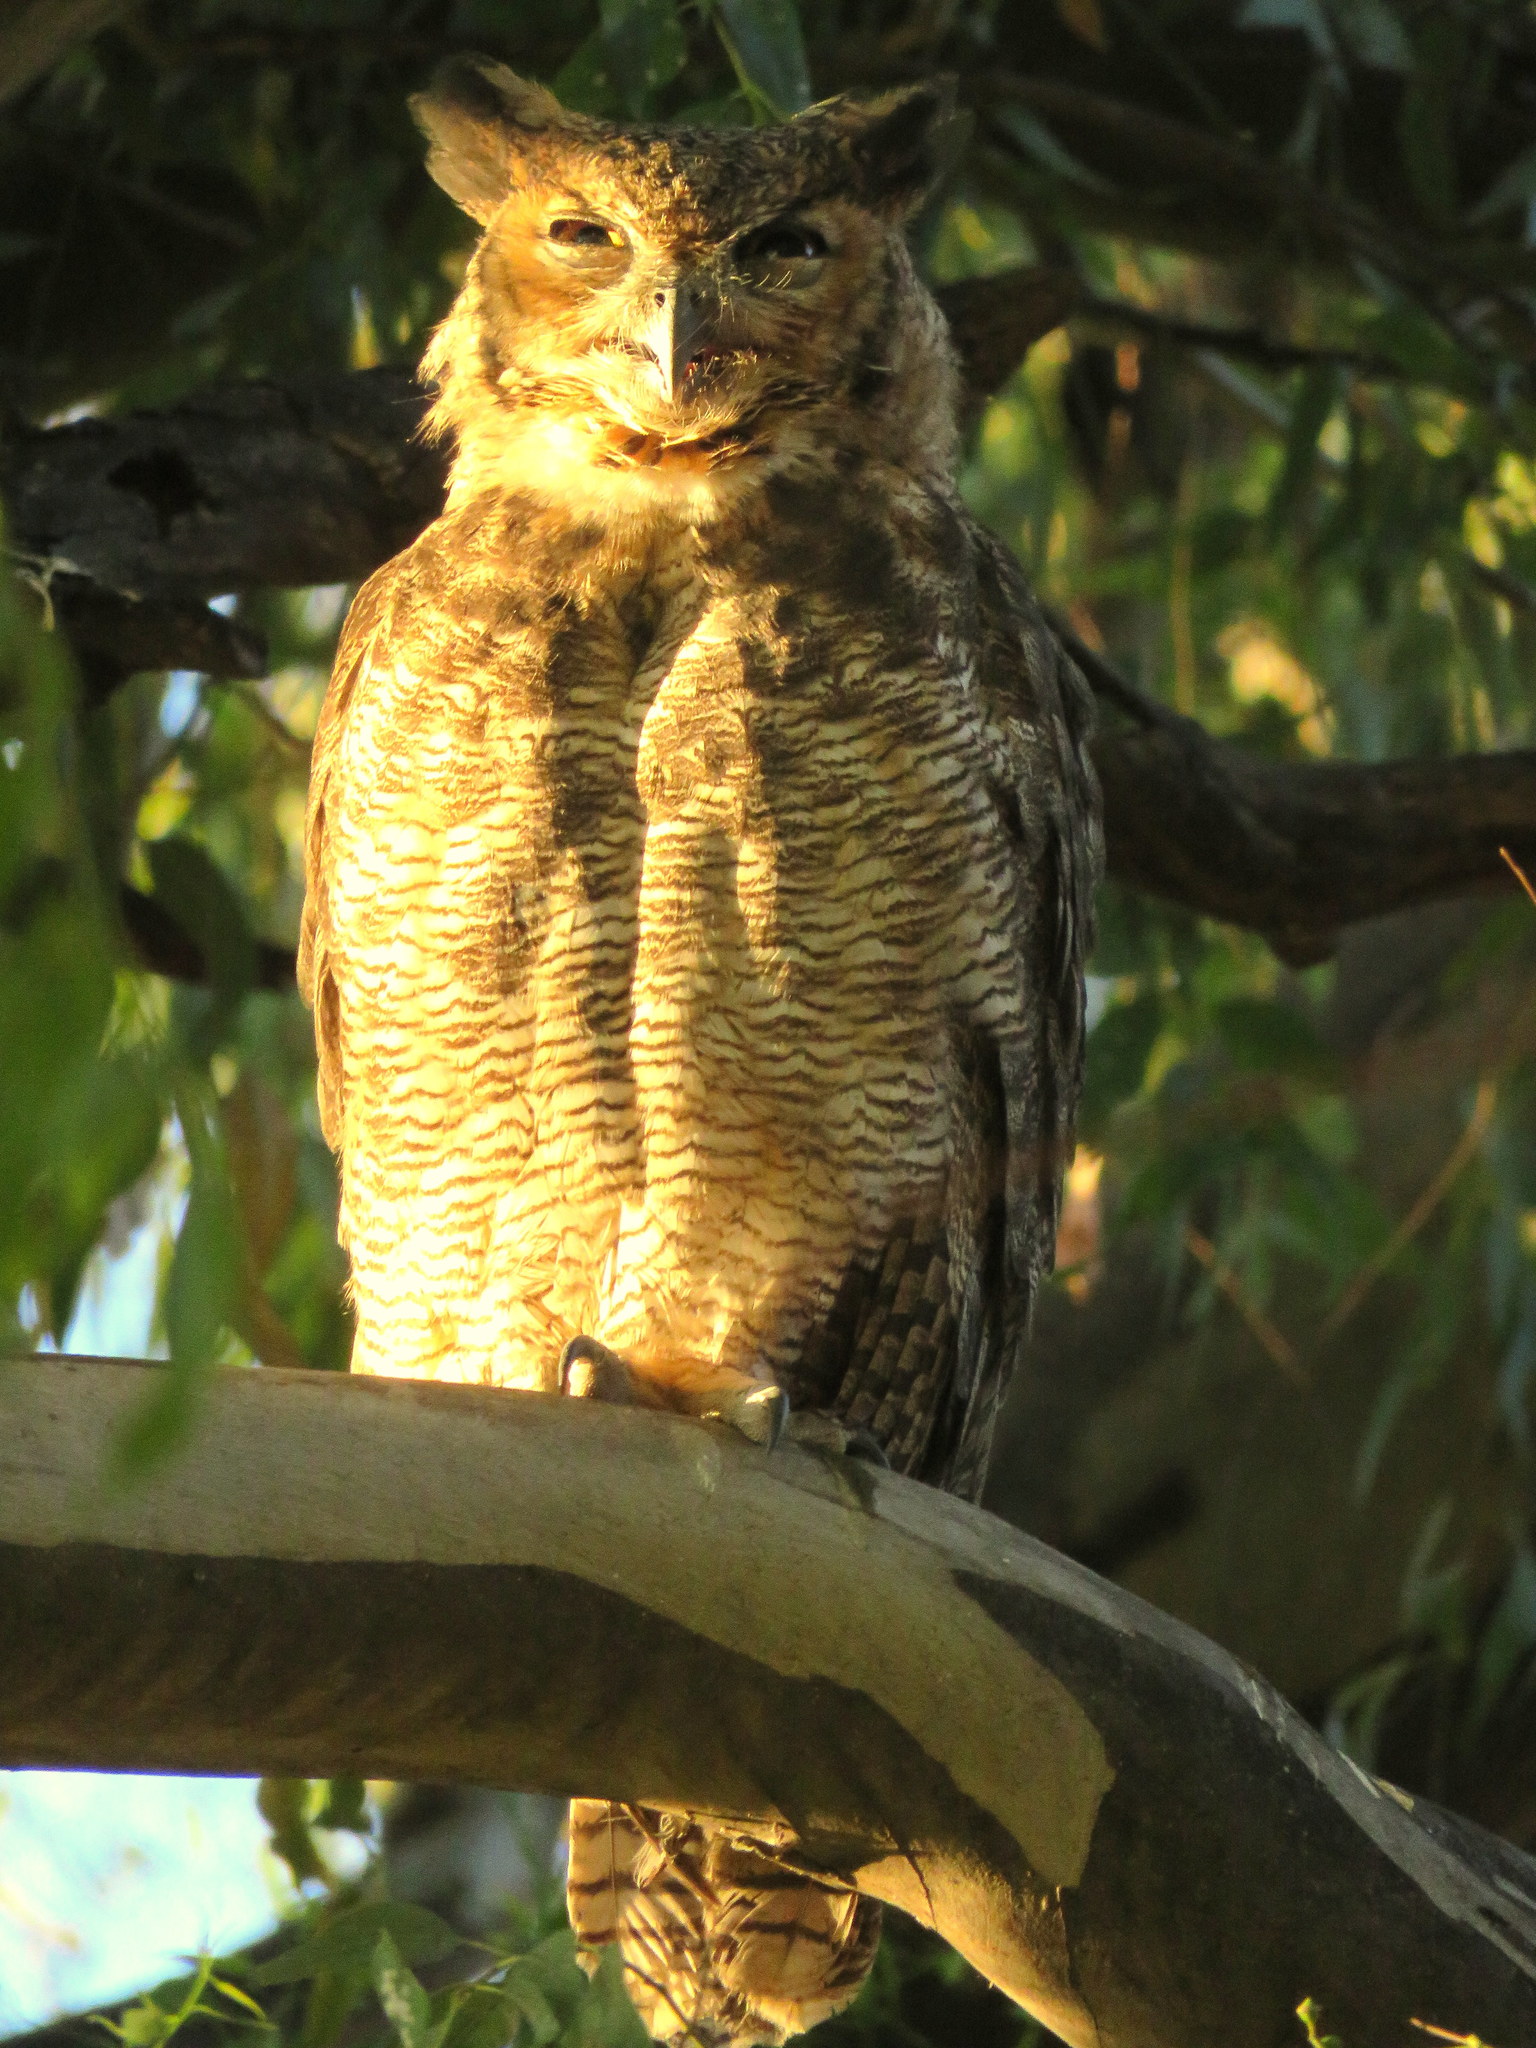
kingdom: Animalia
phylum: Chordata
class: Aves
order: Strigiformes
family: Strigidae
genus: Bubo
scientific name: Bubo virginianus
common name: Great horned owl
